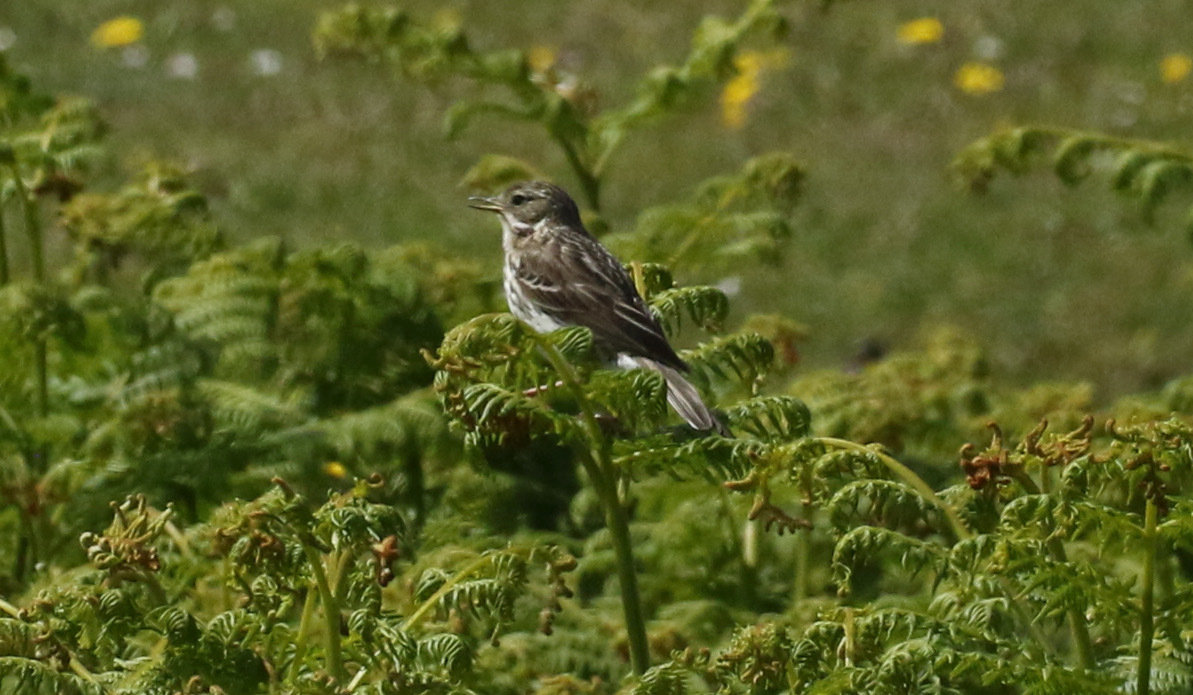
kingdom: Animalia
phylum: Chordata
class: Aves
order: Passeriformes
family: Motacillidae
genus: Anthus
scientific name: Anthus pratensis
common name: Meadow pipit
